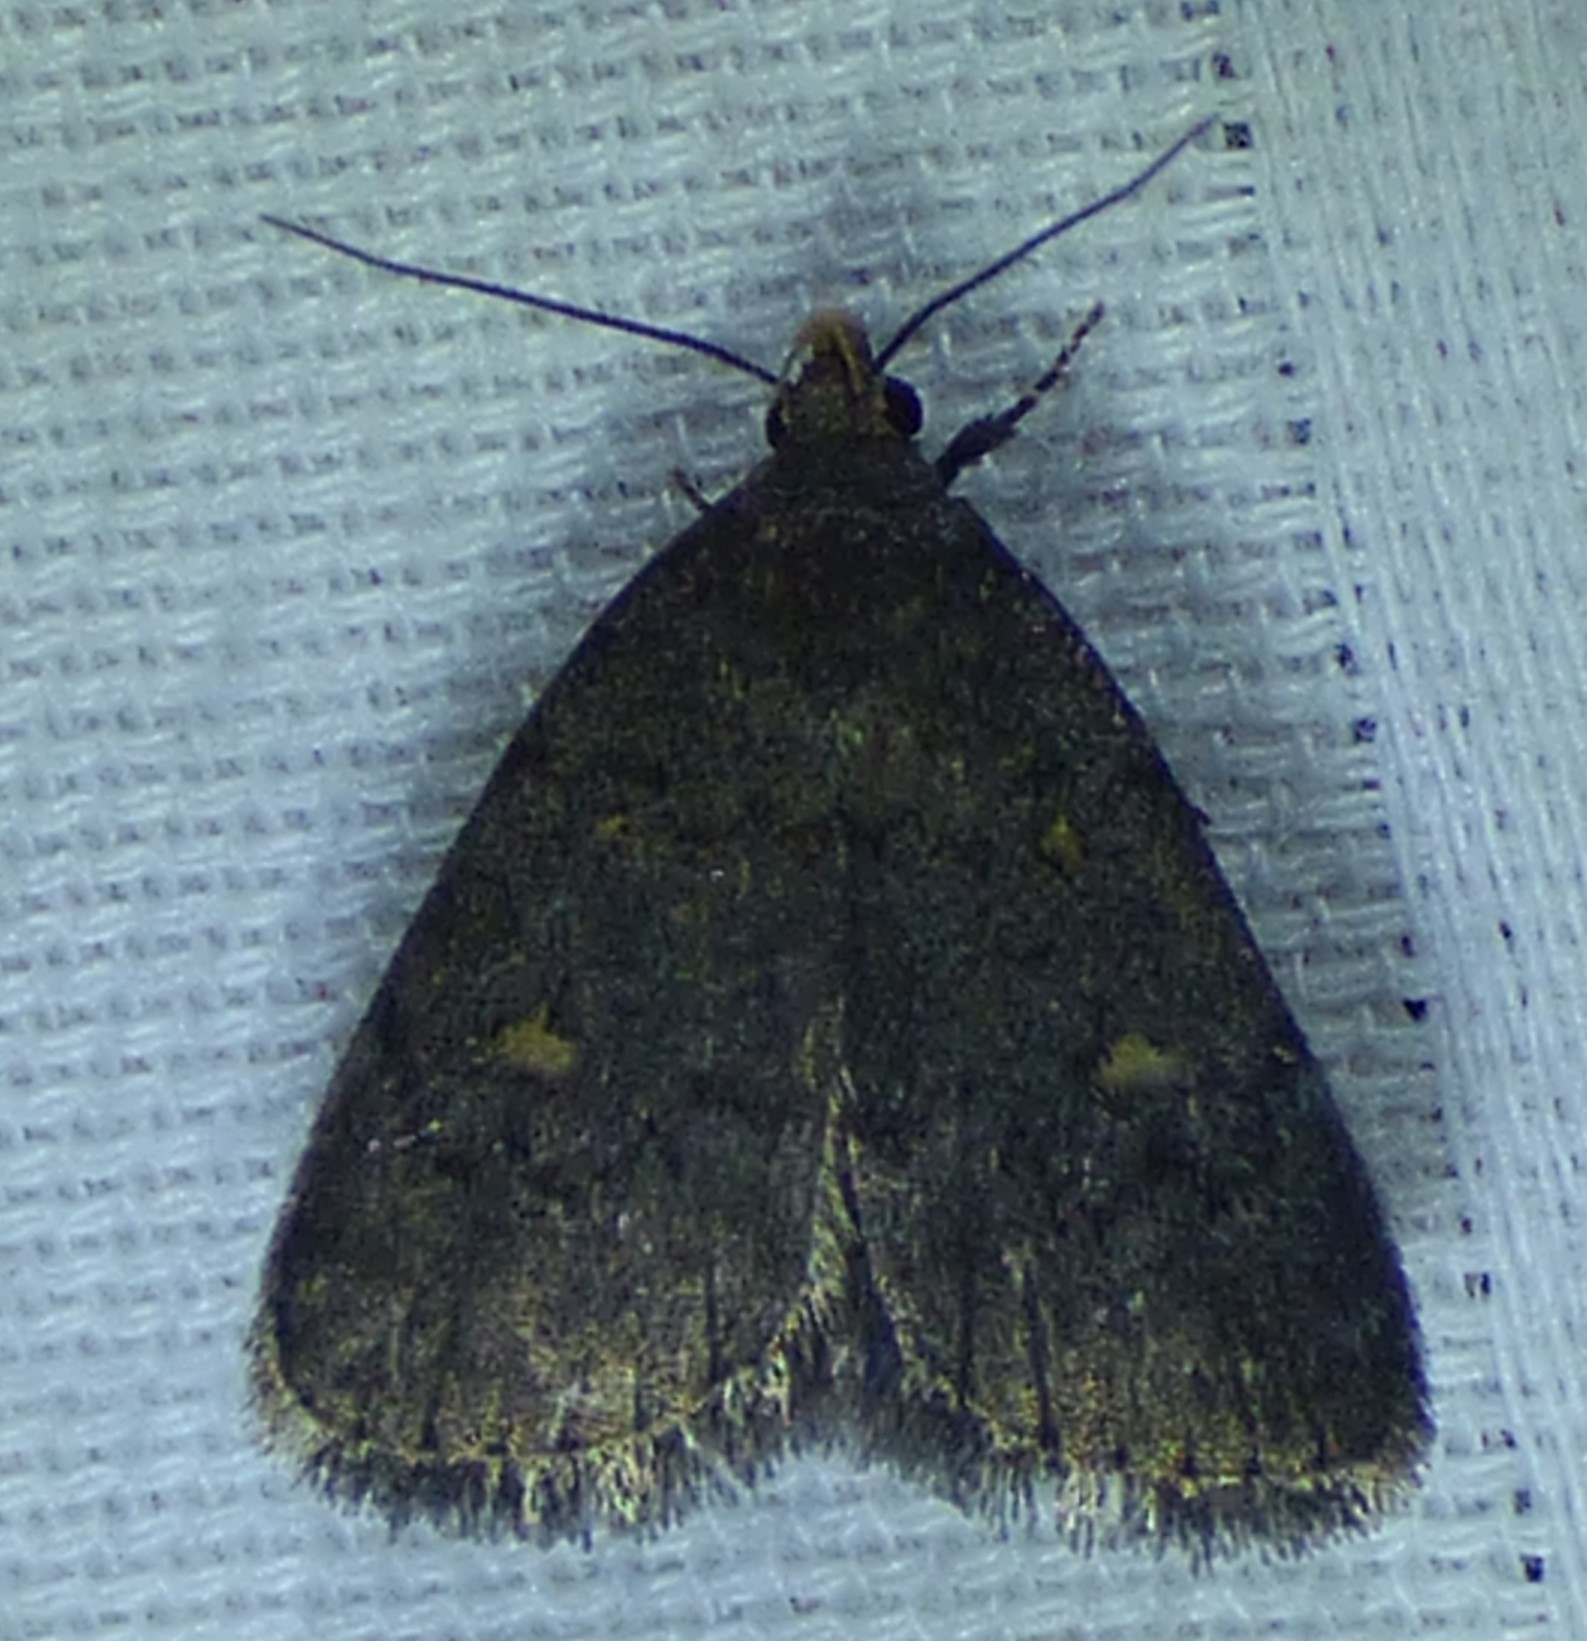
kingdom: Animalia
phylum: Arthropoda
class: Insecta
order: Lepidoptera
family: Erebidae
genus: Idia
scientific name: Idia diminuendis
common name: Orange-spotted idia moth
